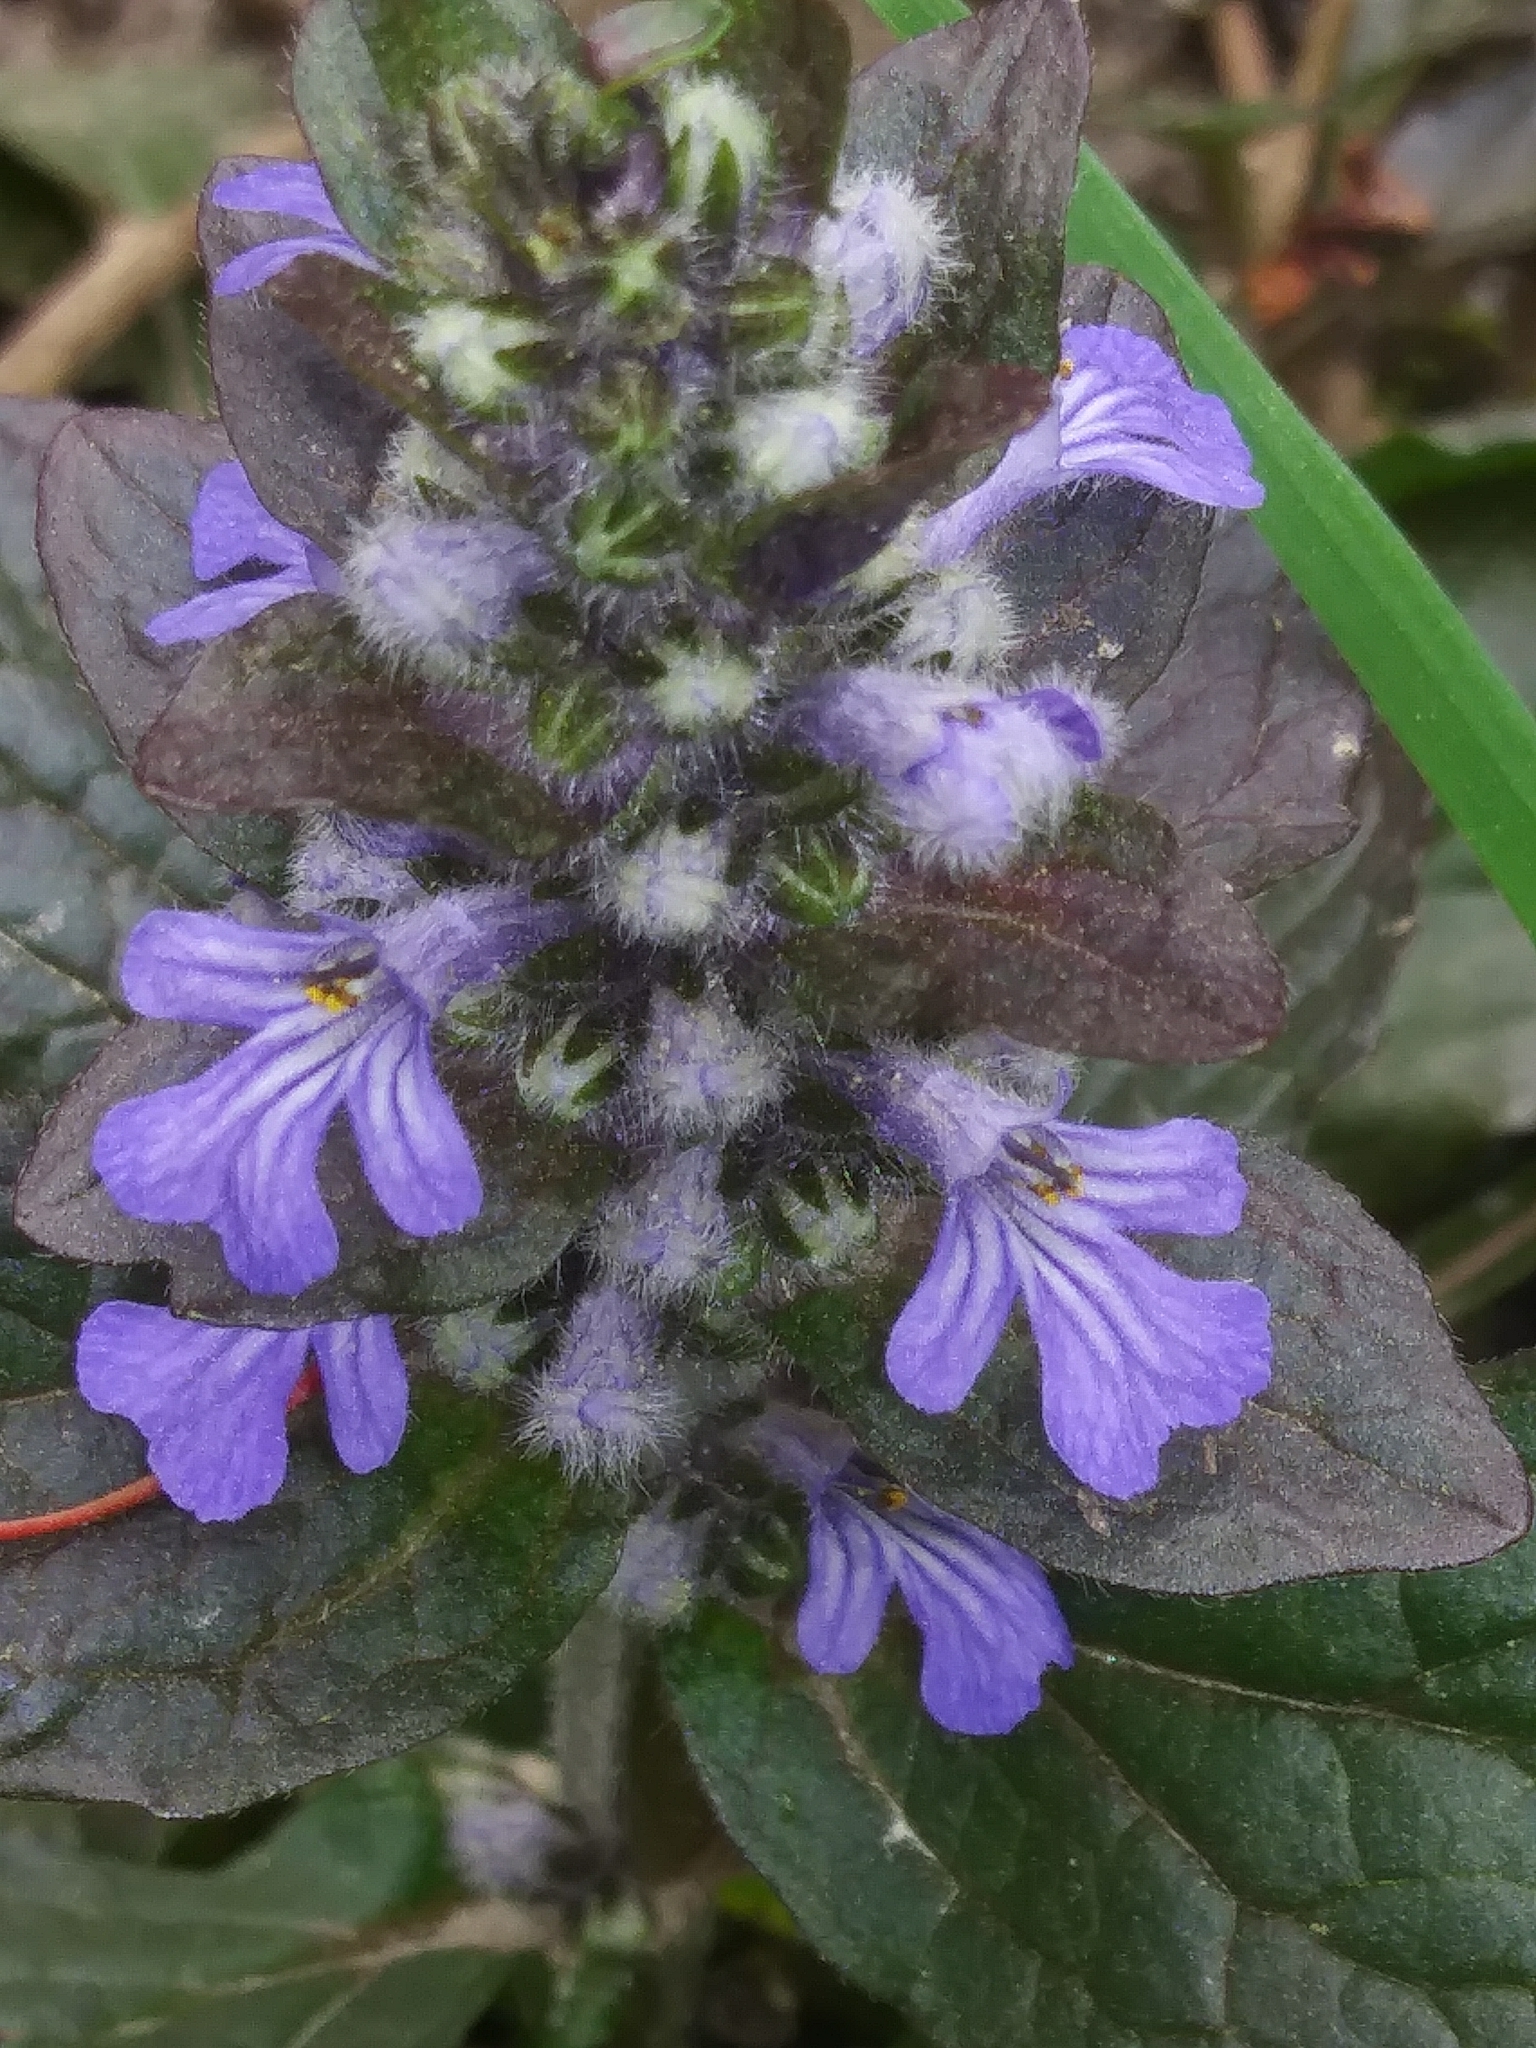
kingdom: Plantae
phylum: Tracheophyta
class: Magnoliopsida
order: Lamiales
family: Lamiaceae
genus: Ajuga
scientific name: Ajuga reptans
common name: Bugle
